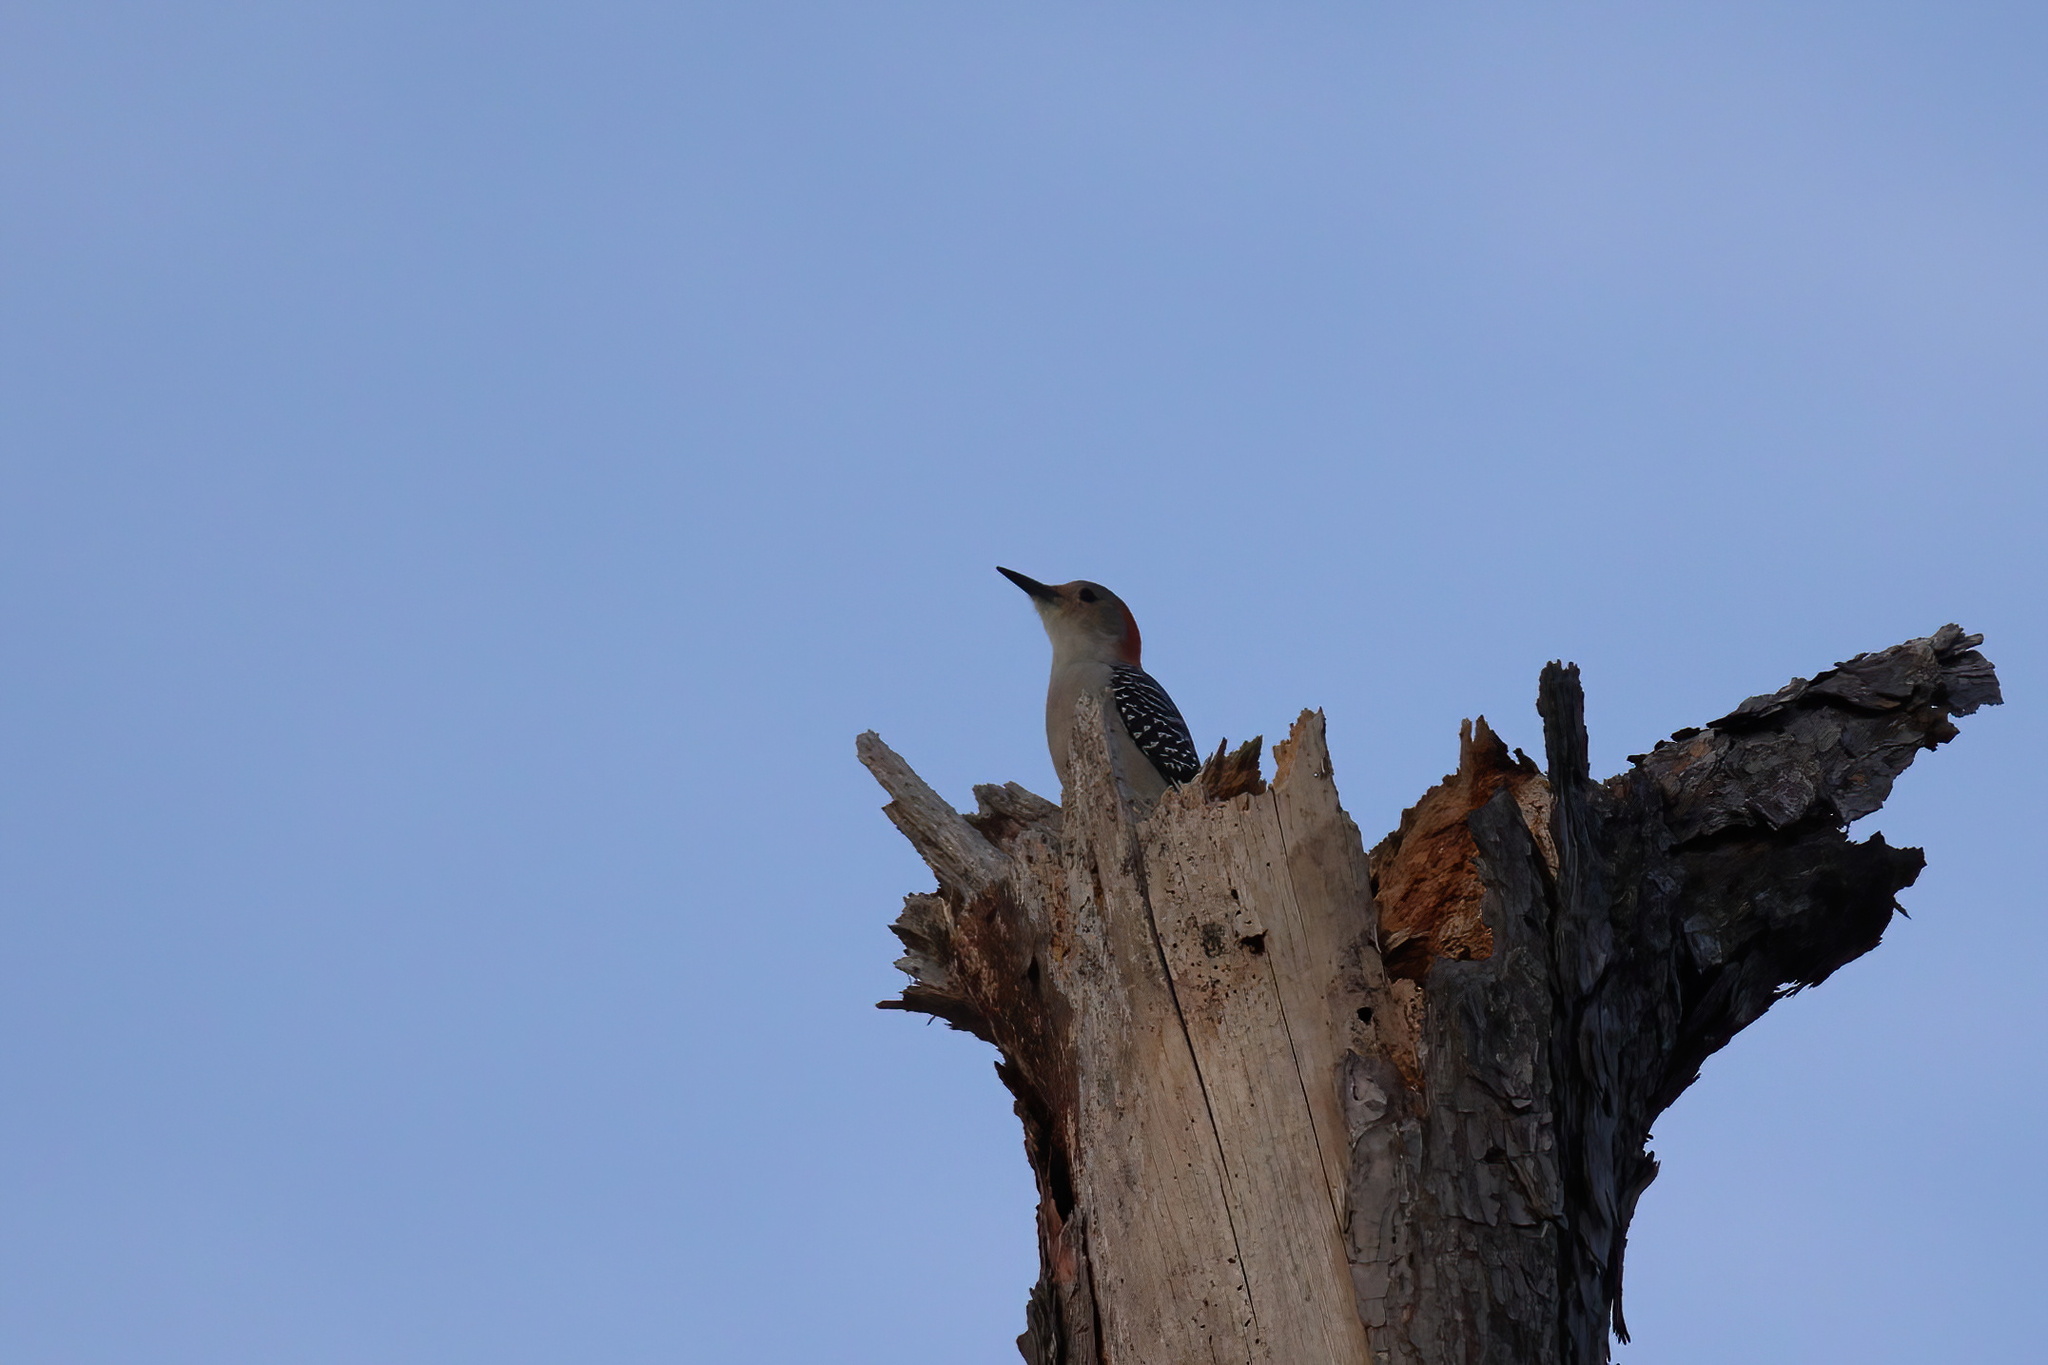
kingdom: Animalia
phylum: Chordata
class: Aves
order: Piciformes
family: Picidae
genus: Melanerpes
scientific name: Melanerpes carolinus
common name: Red-bellied woodpecker
